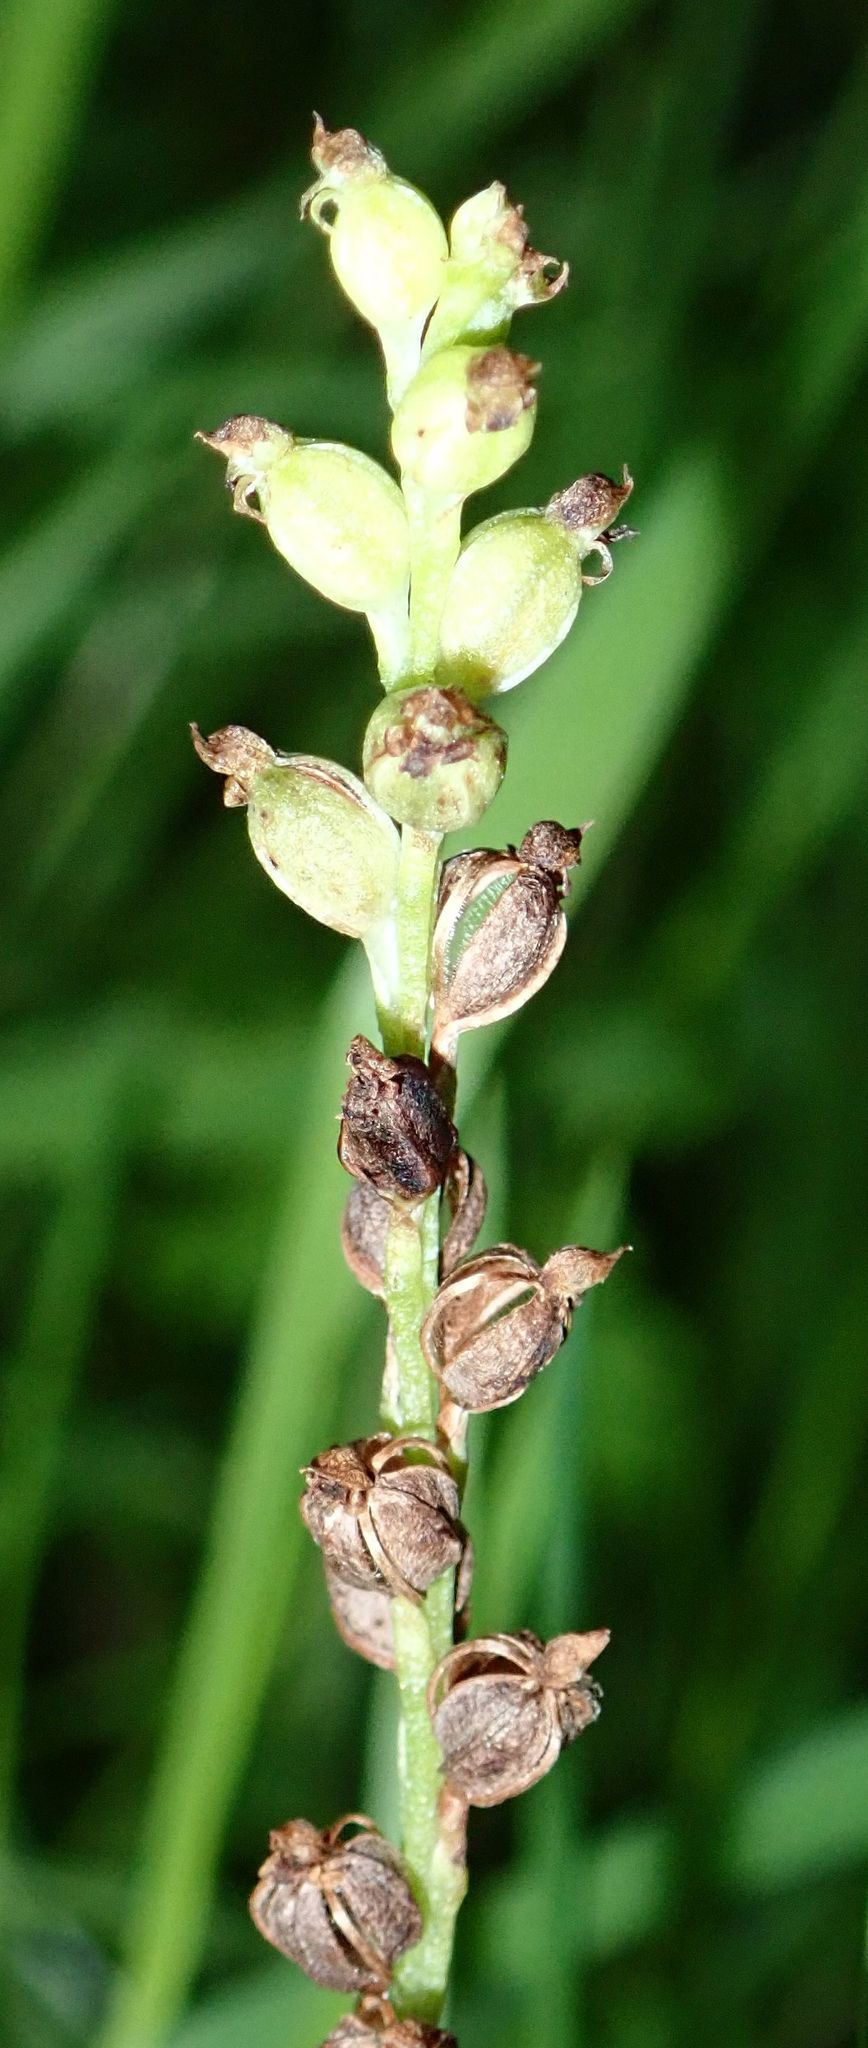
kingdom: Plantae
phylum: Tracheophyta
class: Liliopsida
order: Asparagales
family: Orchidaceae
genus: Microtis
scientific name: Microtis unifolia
